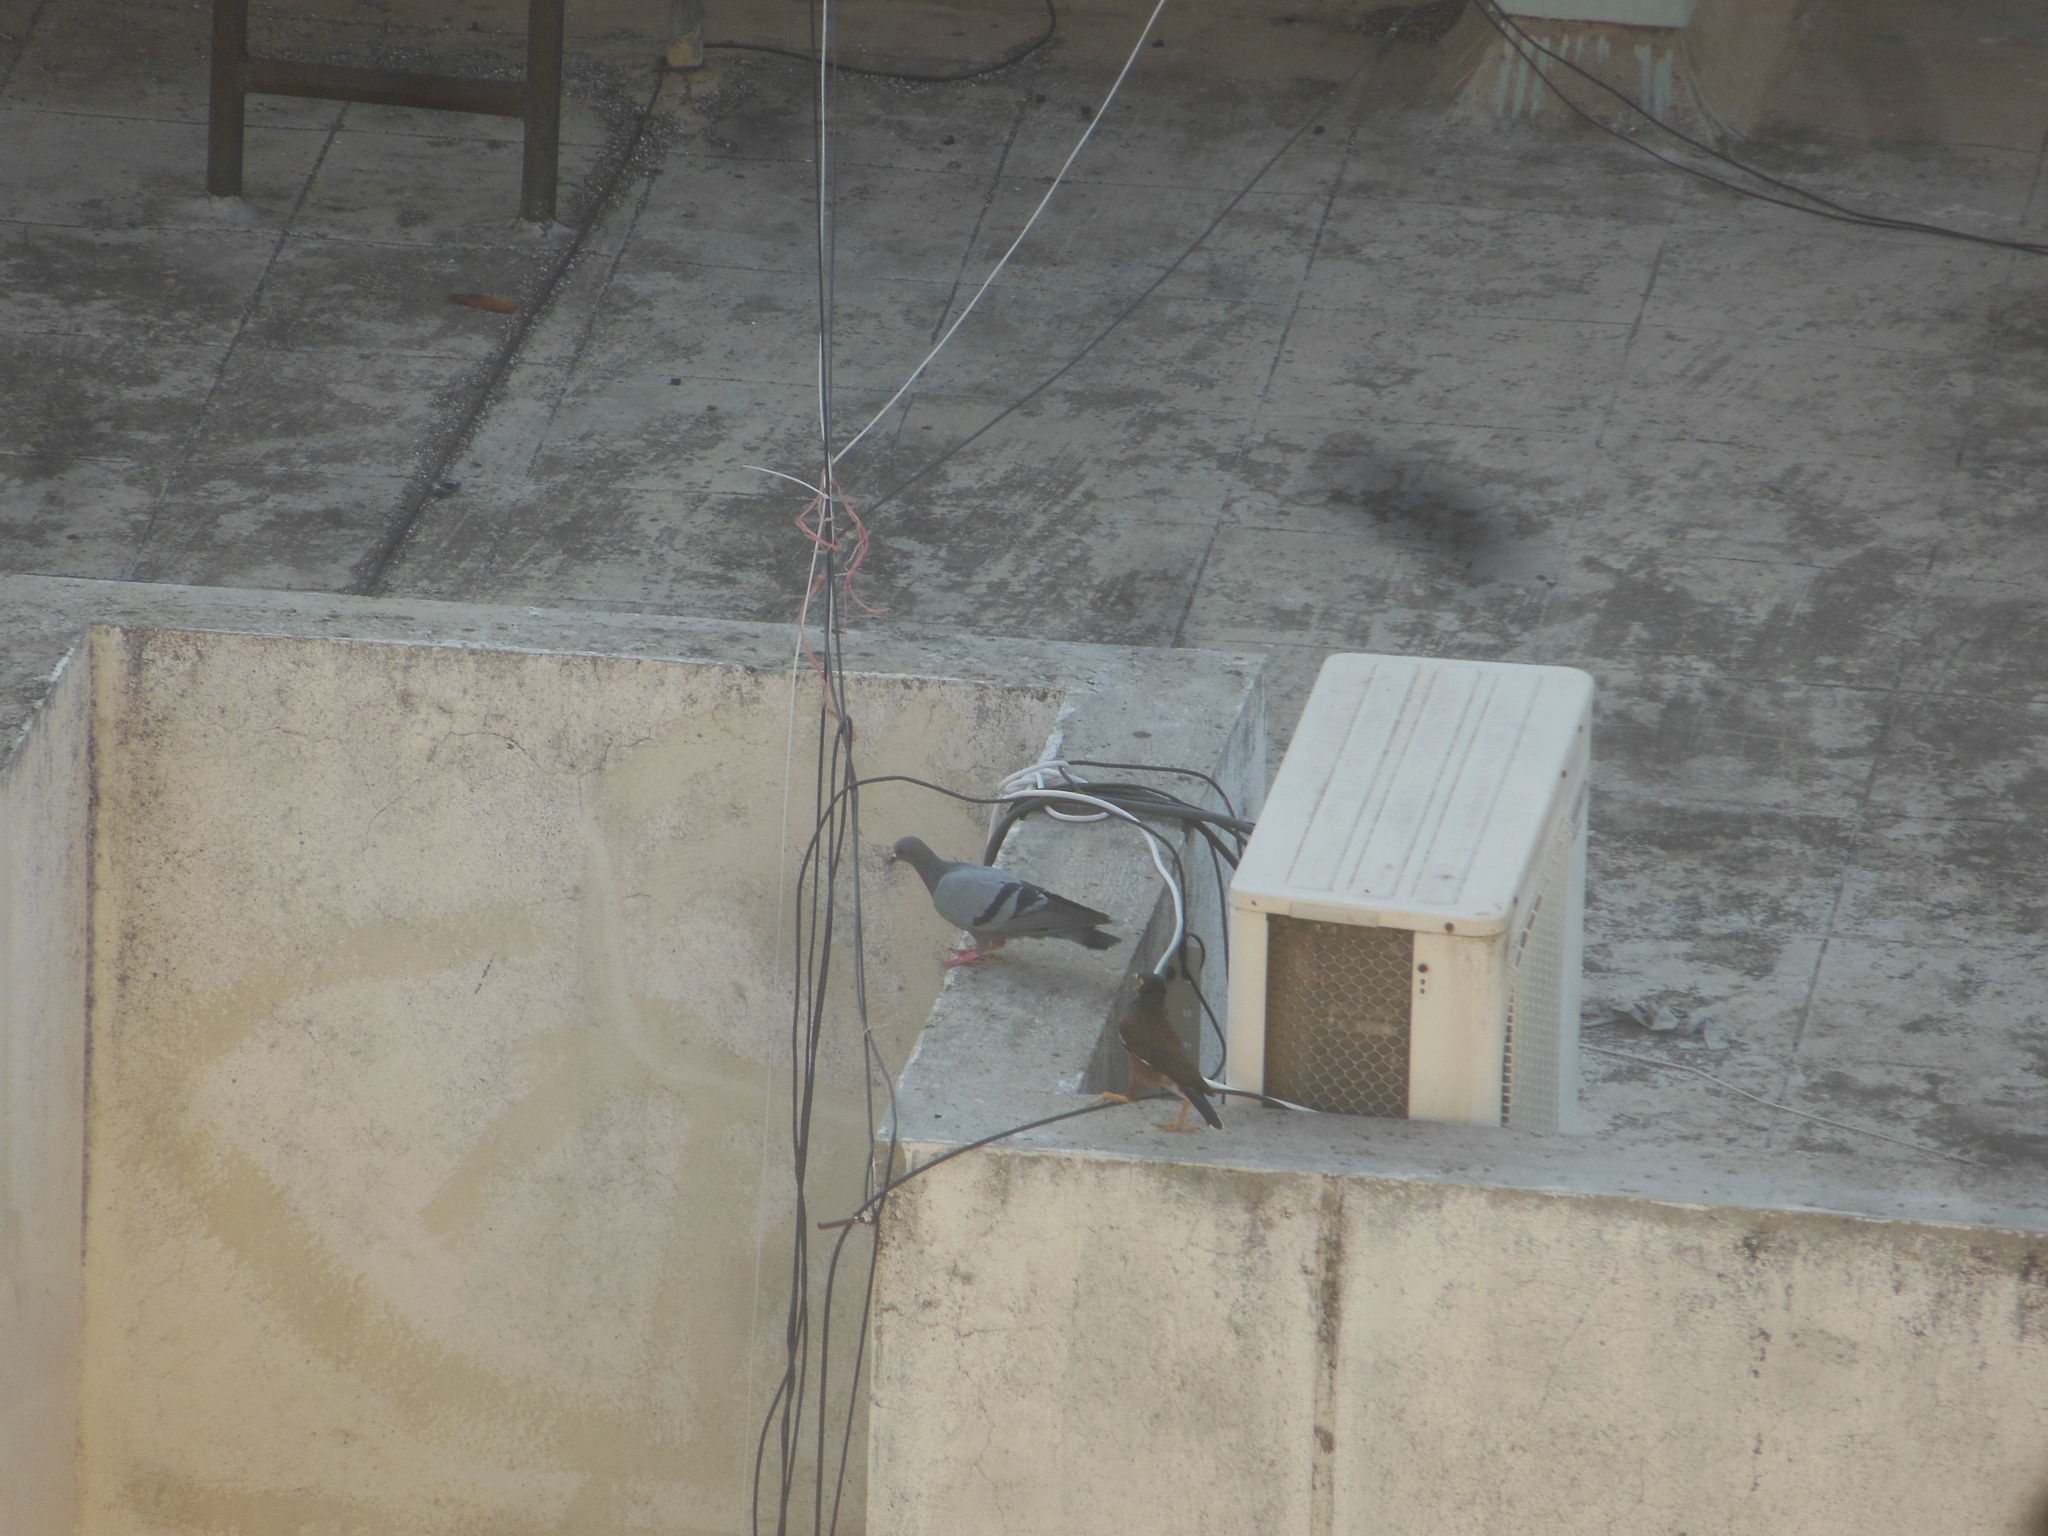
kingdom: Animalia
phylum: Chordata
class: Aves
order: Columbiformes
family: Columbidae
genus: Columba
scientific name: Columba livia
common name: Rock pigeon
